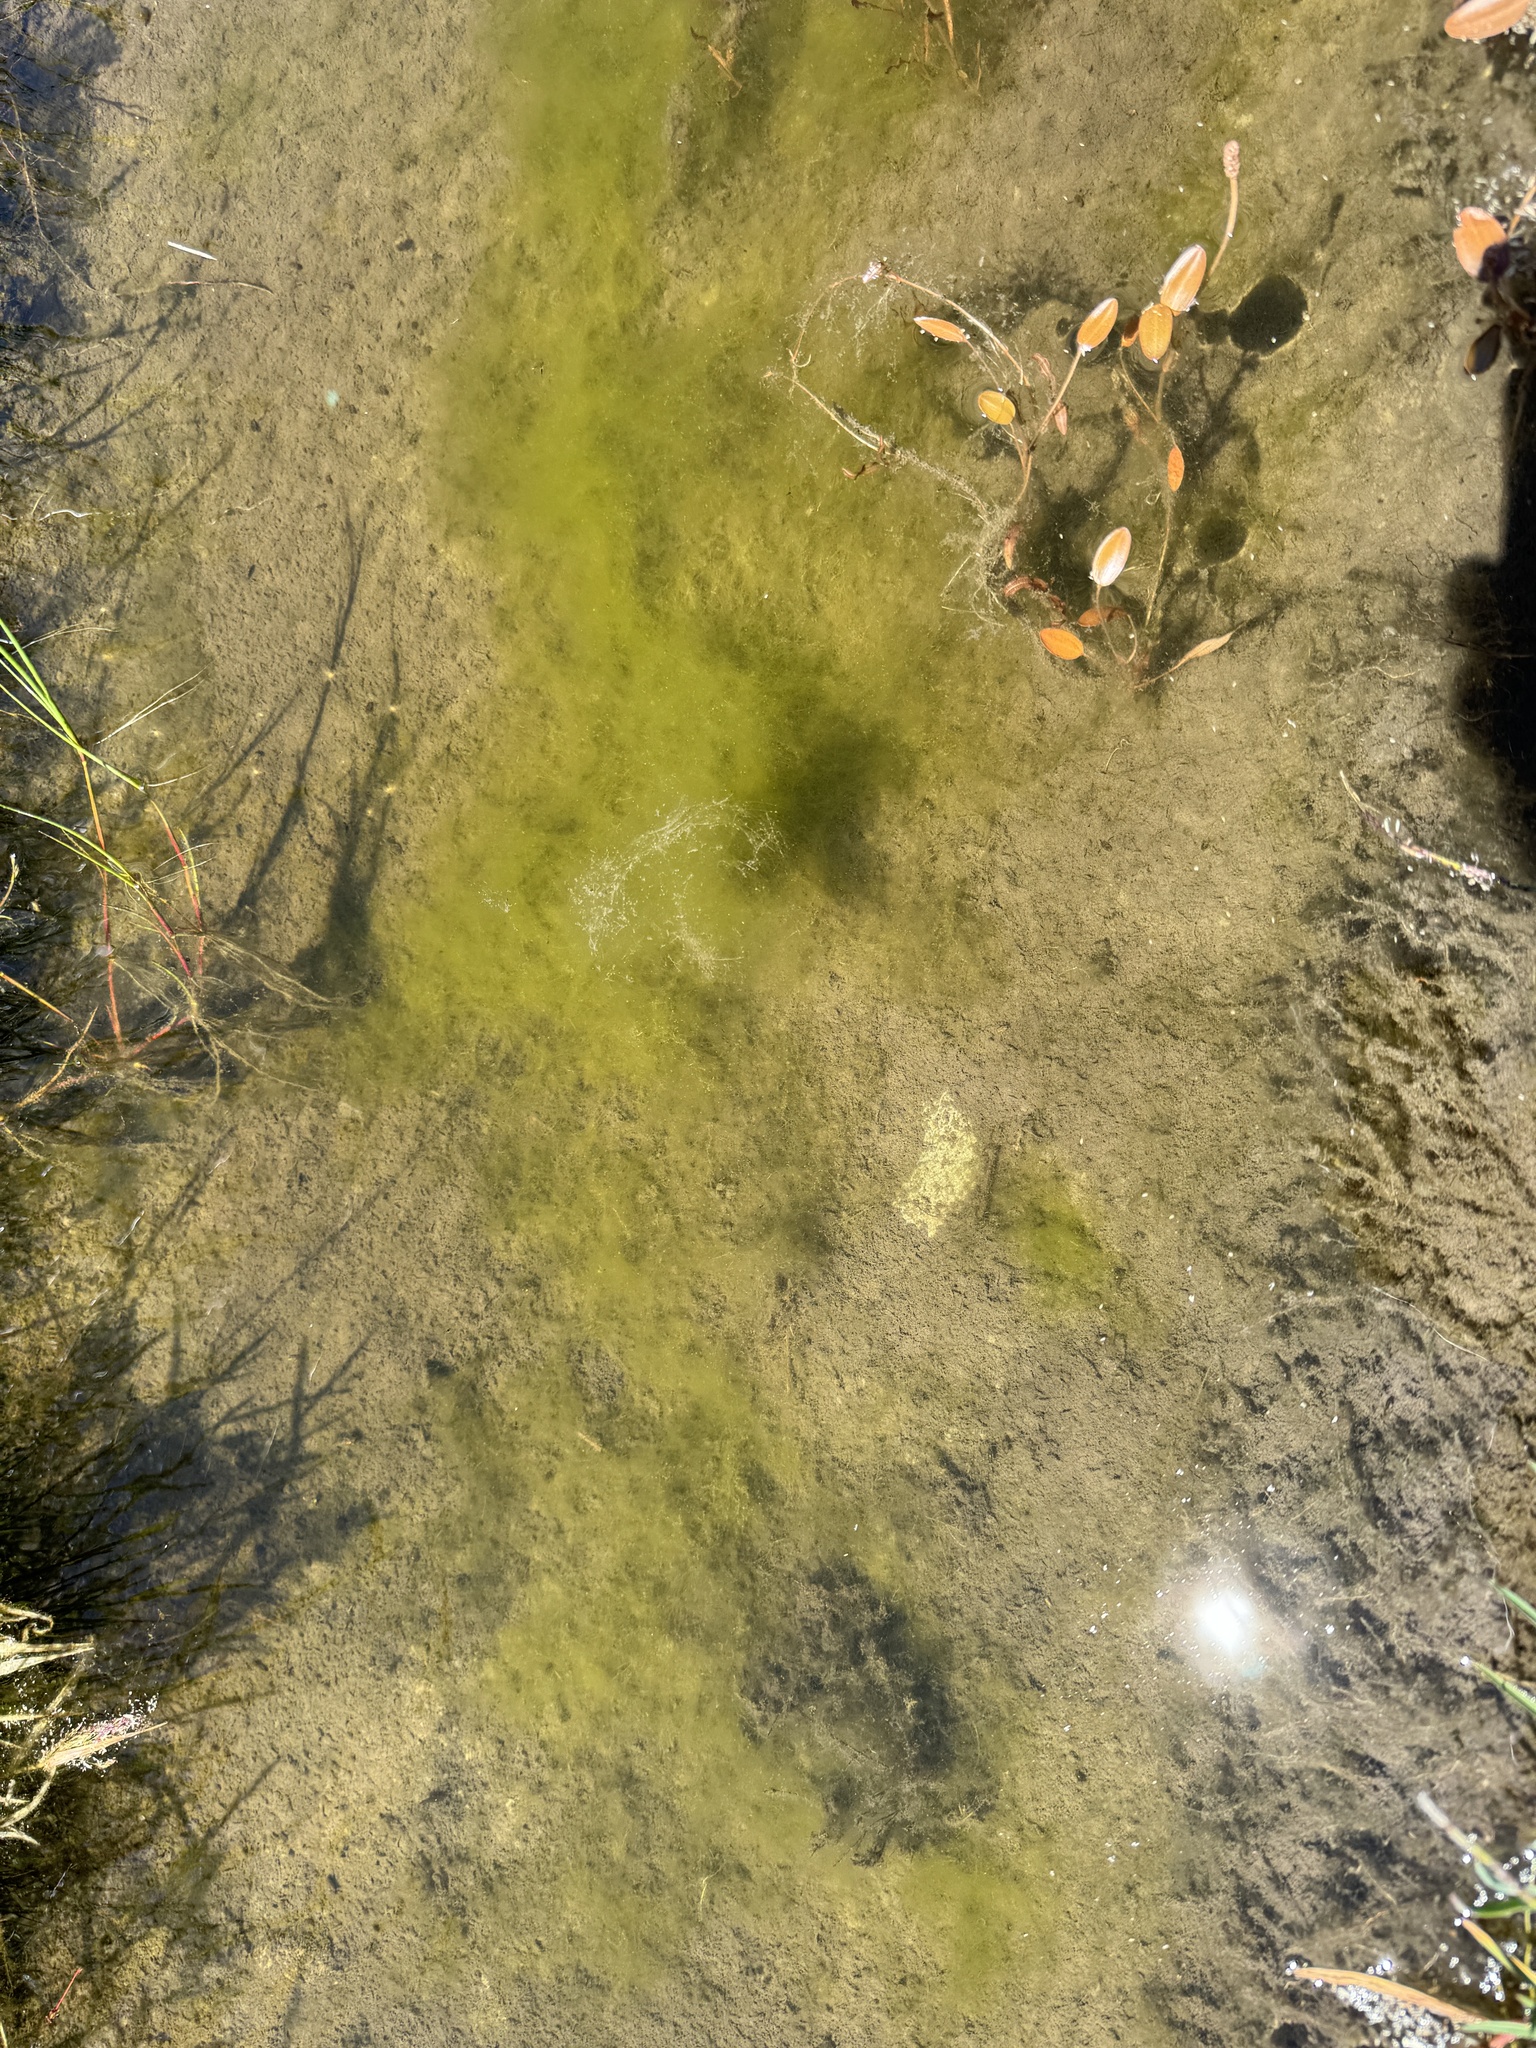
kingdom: Plantae
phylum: Charophyta
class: Zygnematophyceae
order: Zygnematales
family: Zygnemataceae
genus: Spirogyra
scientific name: Spirogyra
